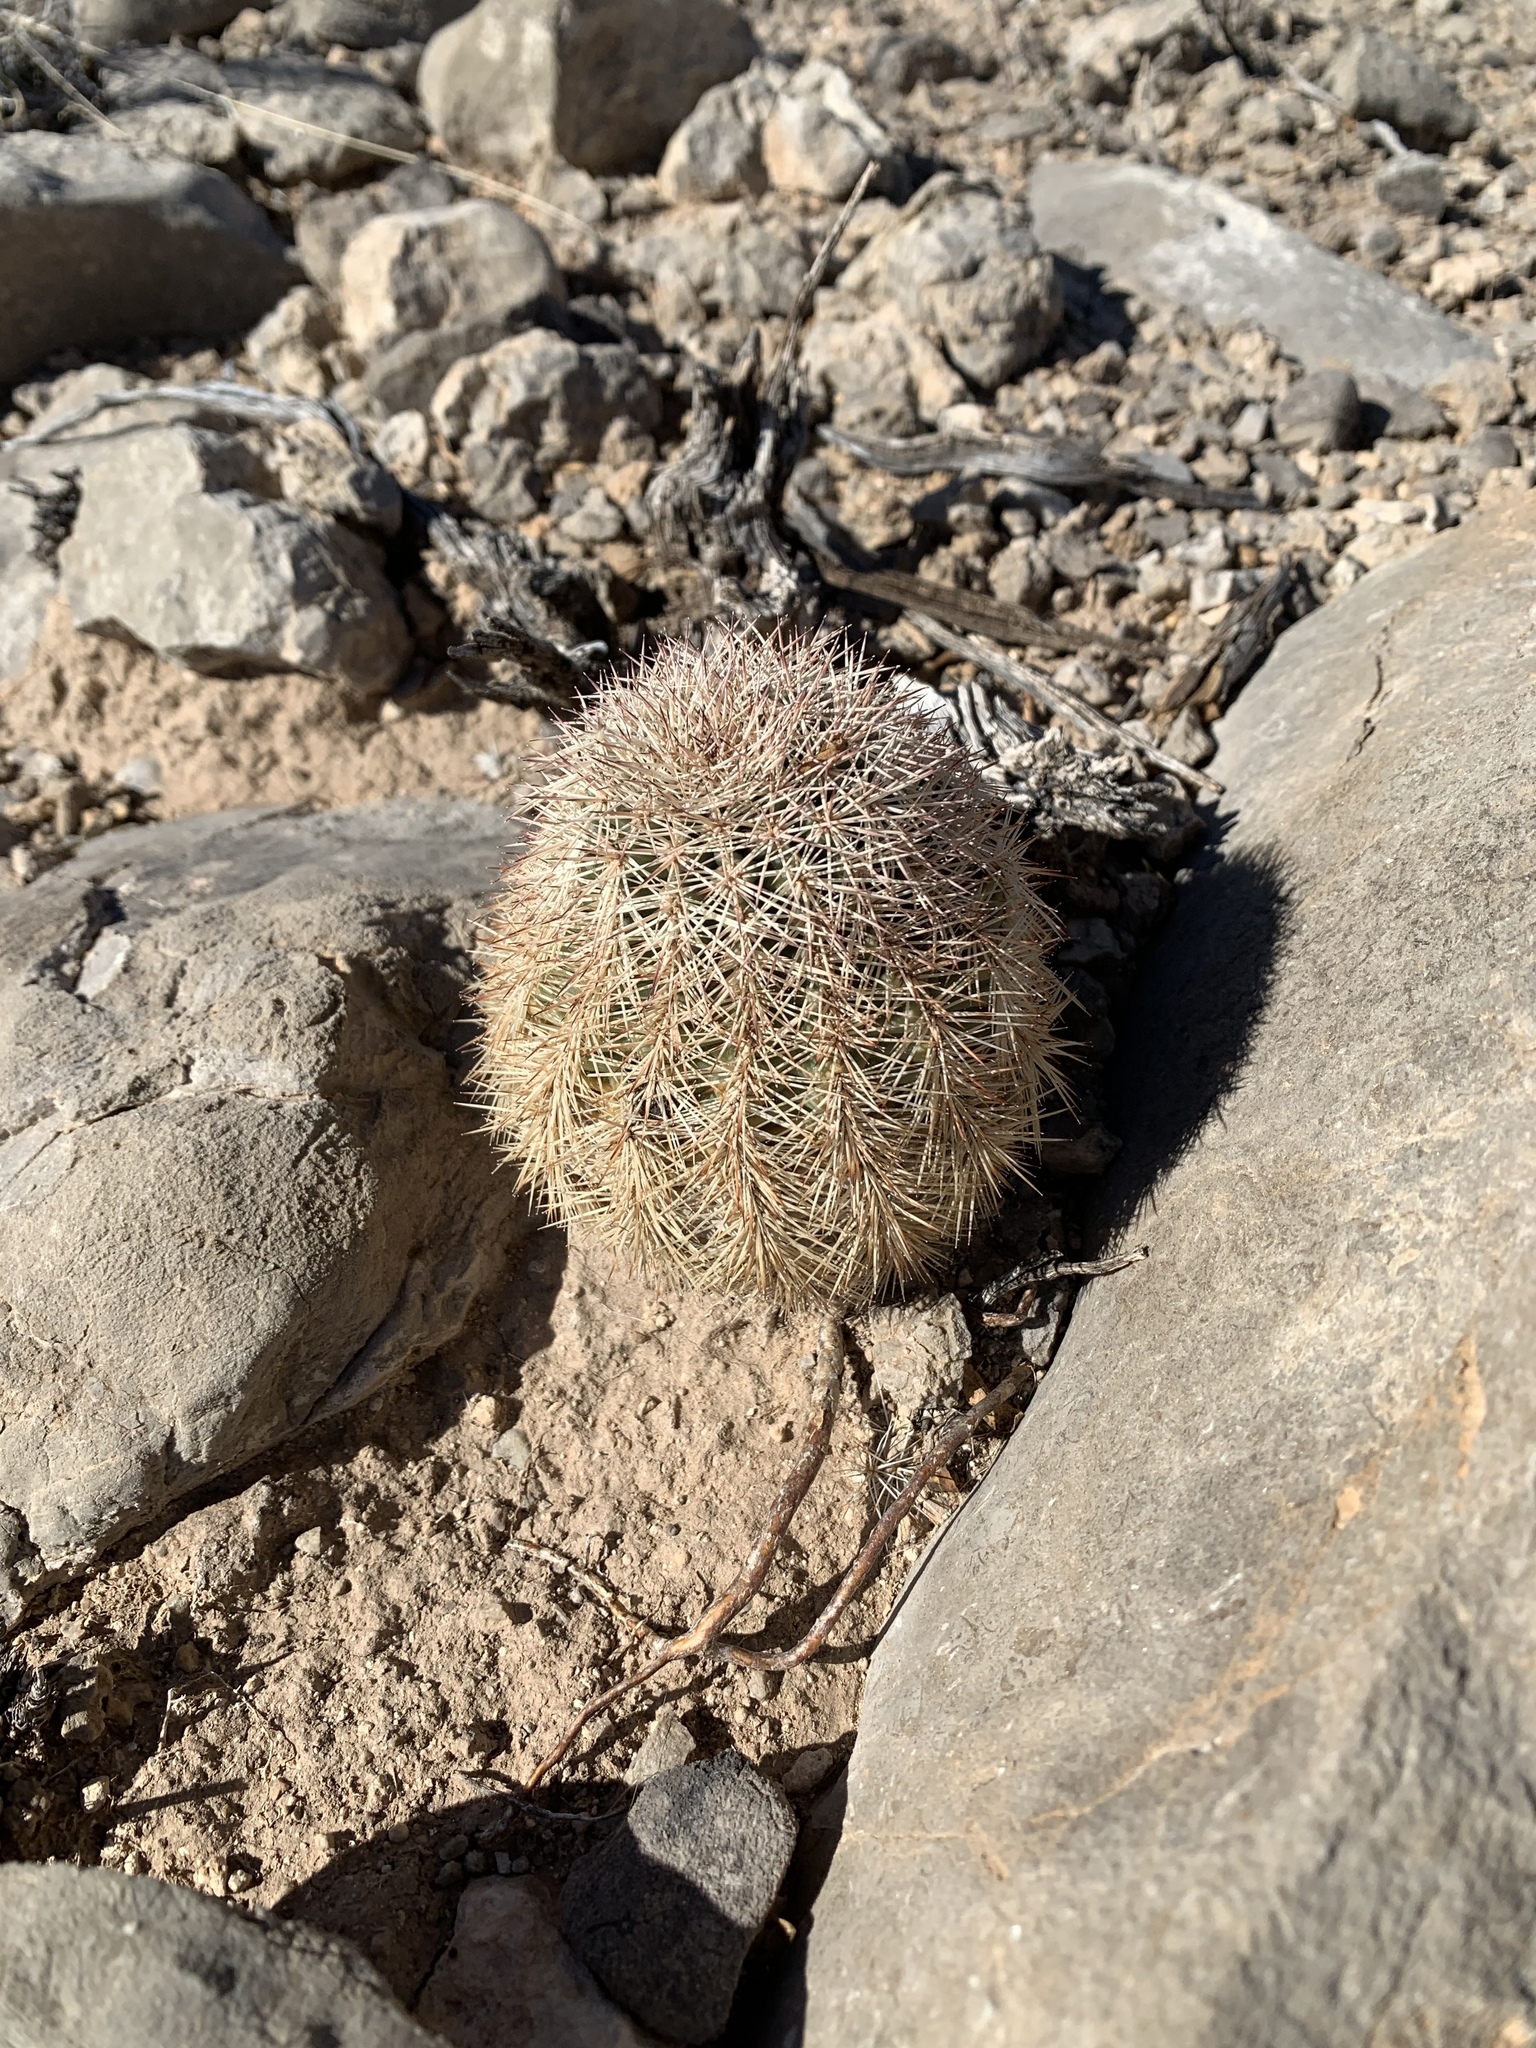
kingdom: Plantae
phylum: Tracheophyta
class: Magnoliopsida
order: Caryophyllales
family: Cactaceae
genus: Echinocereus
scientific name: Echinocereus dasyacanthus
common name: Spiny hedgehog cactus
